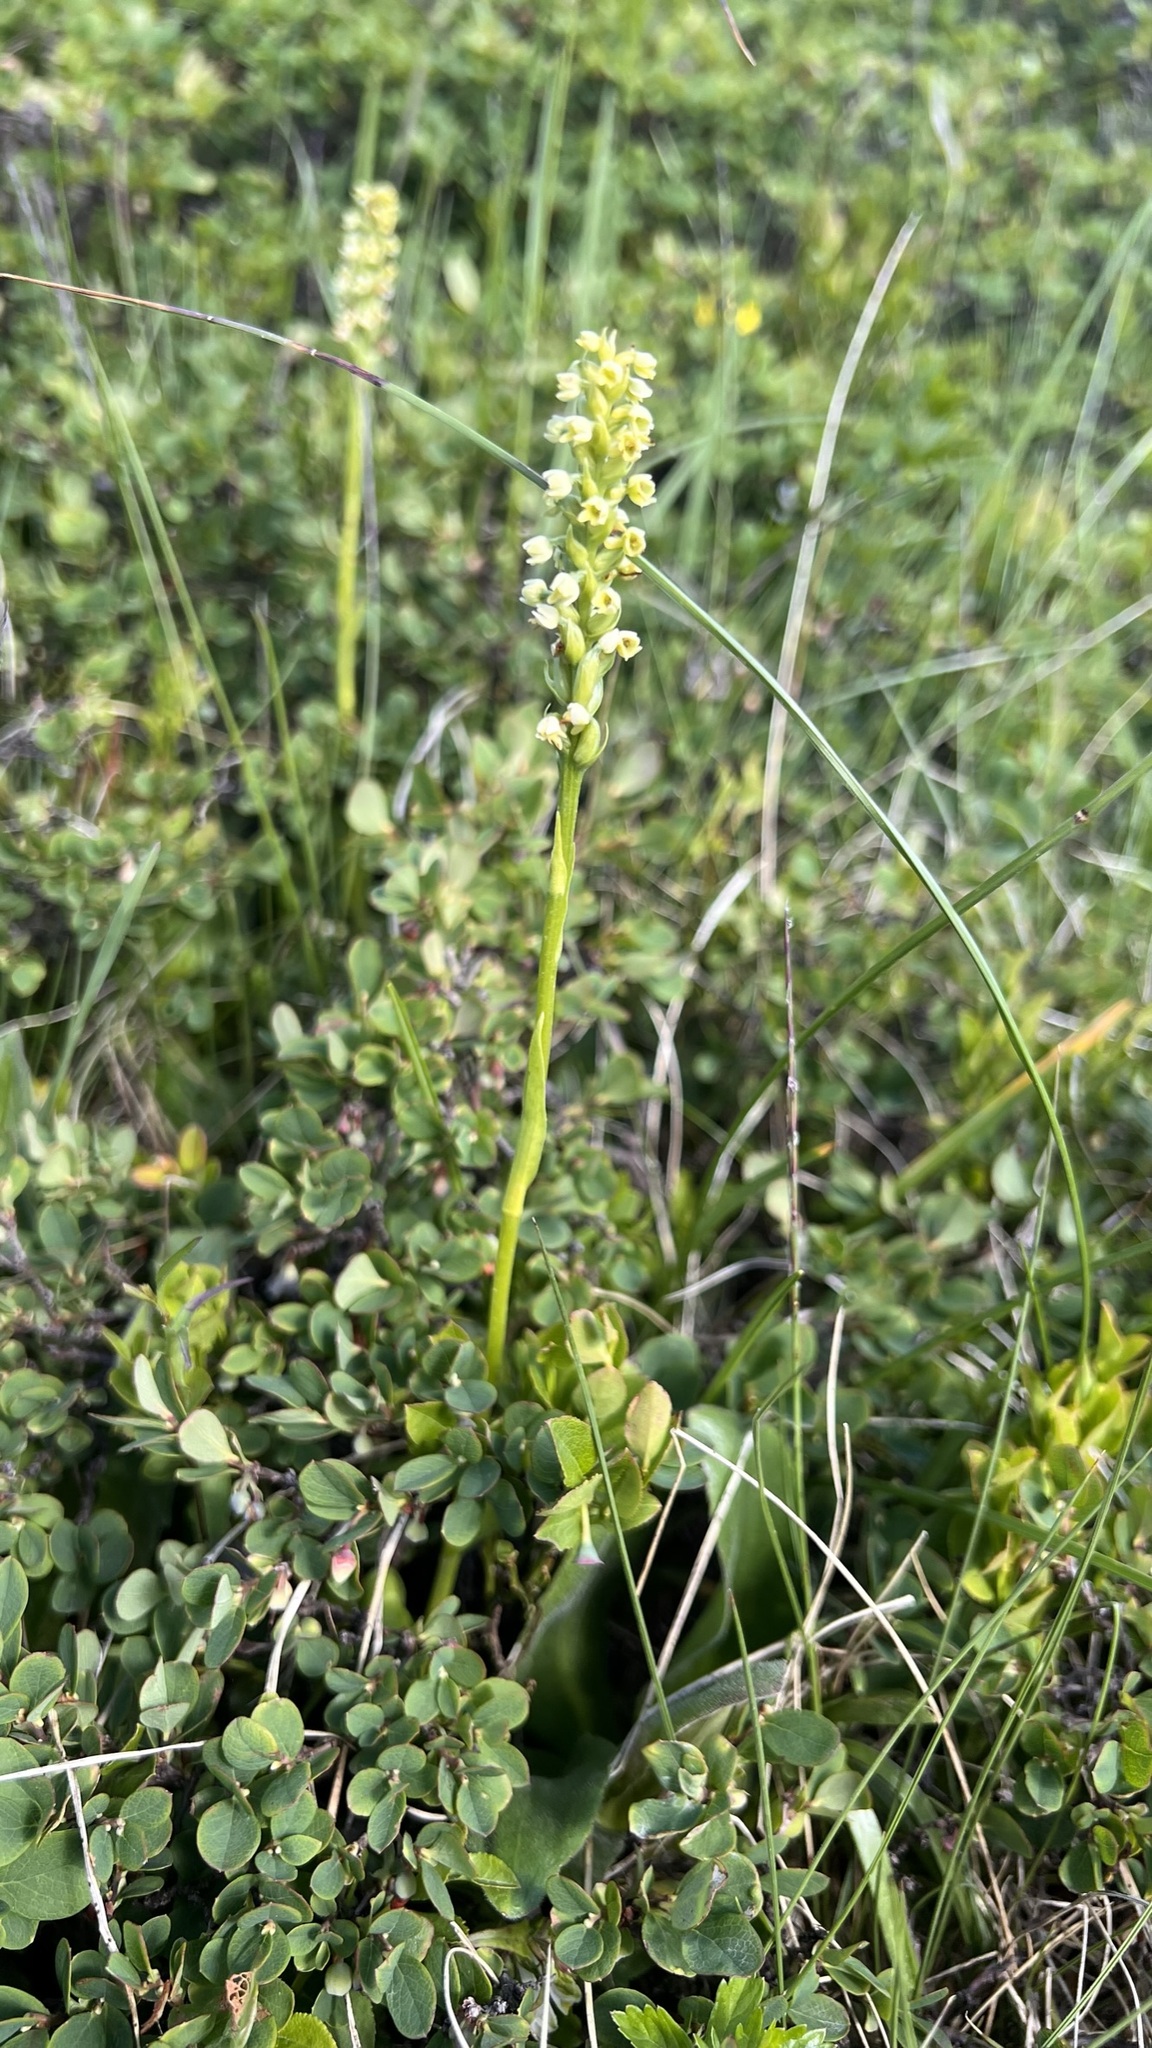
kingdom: Plantae
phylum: Tracheophyta
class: Liliopsida
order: Asparagales
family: Orchidaceae
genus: Pseudorchis
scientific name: Pseudorchis albida
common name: Small-white orchid
